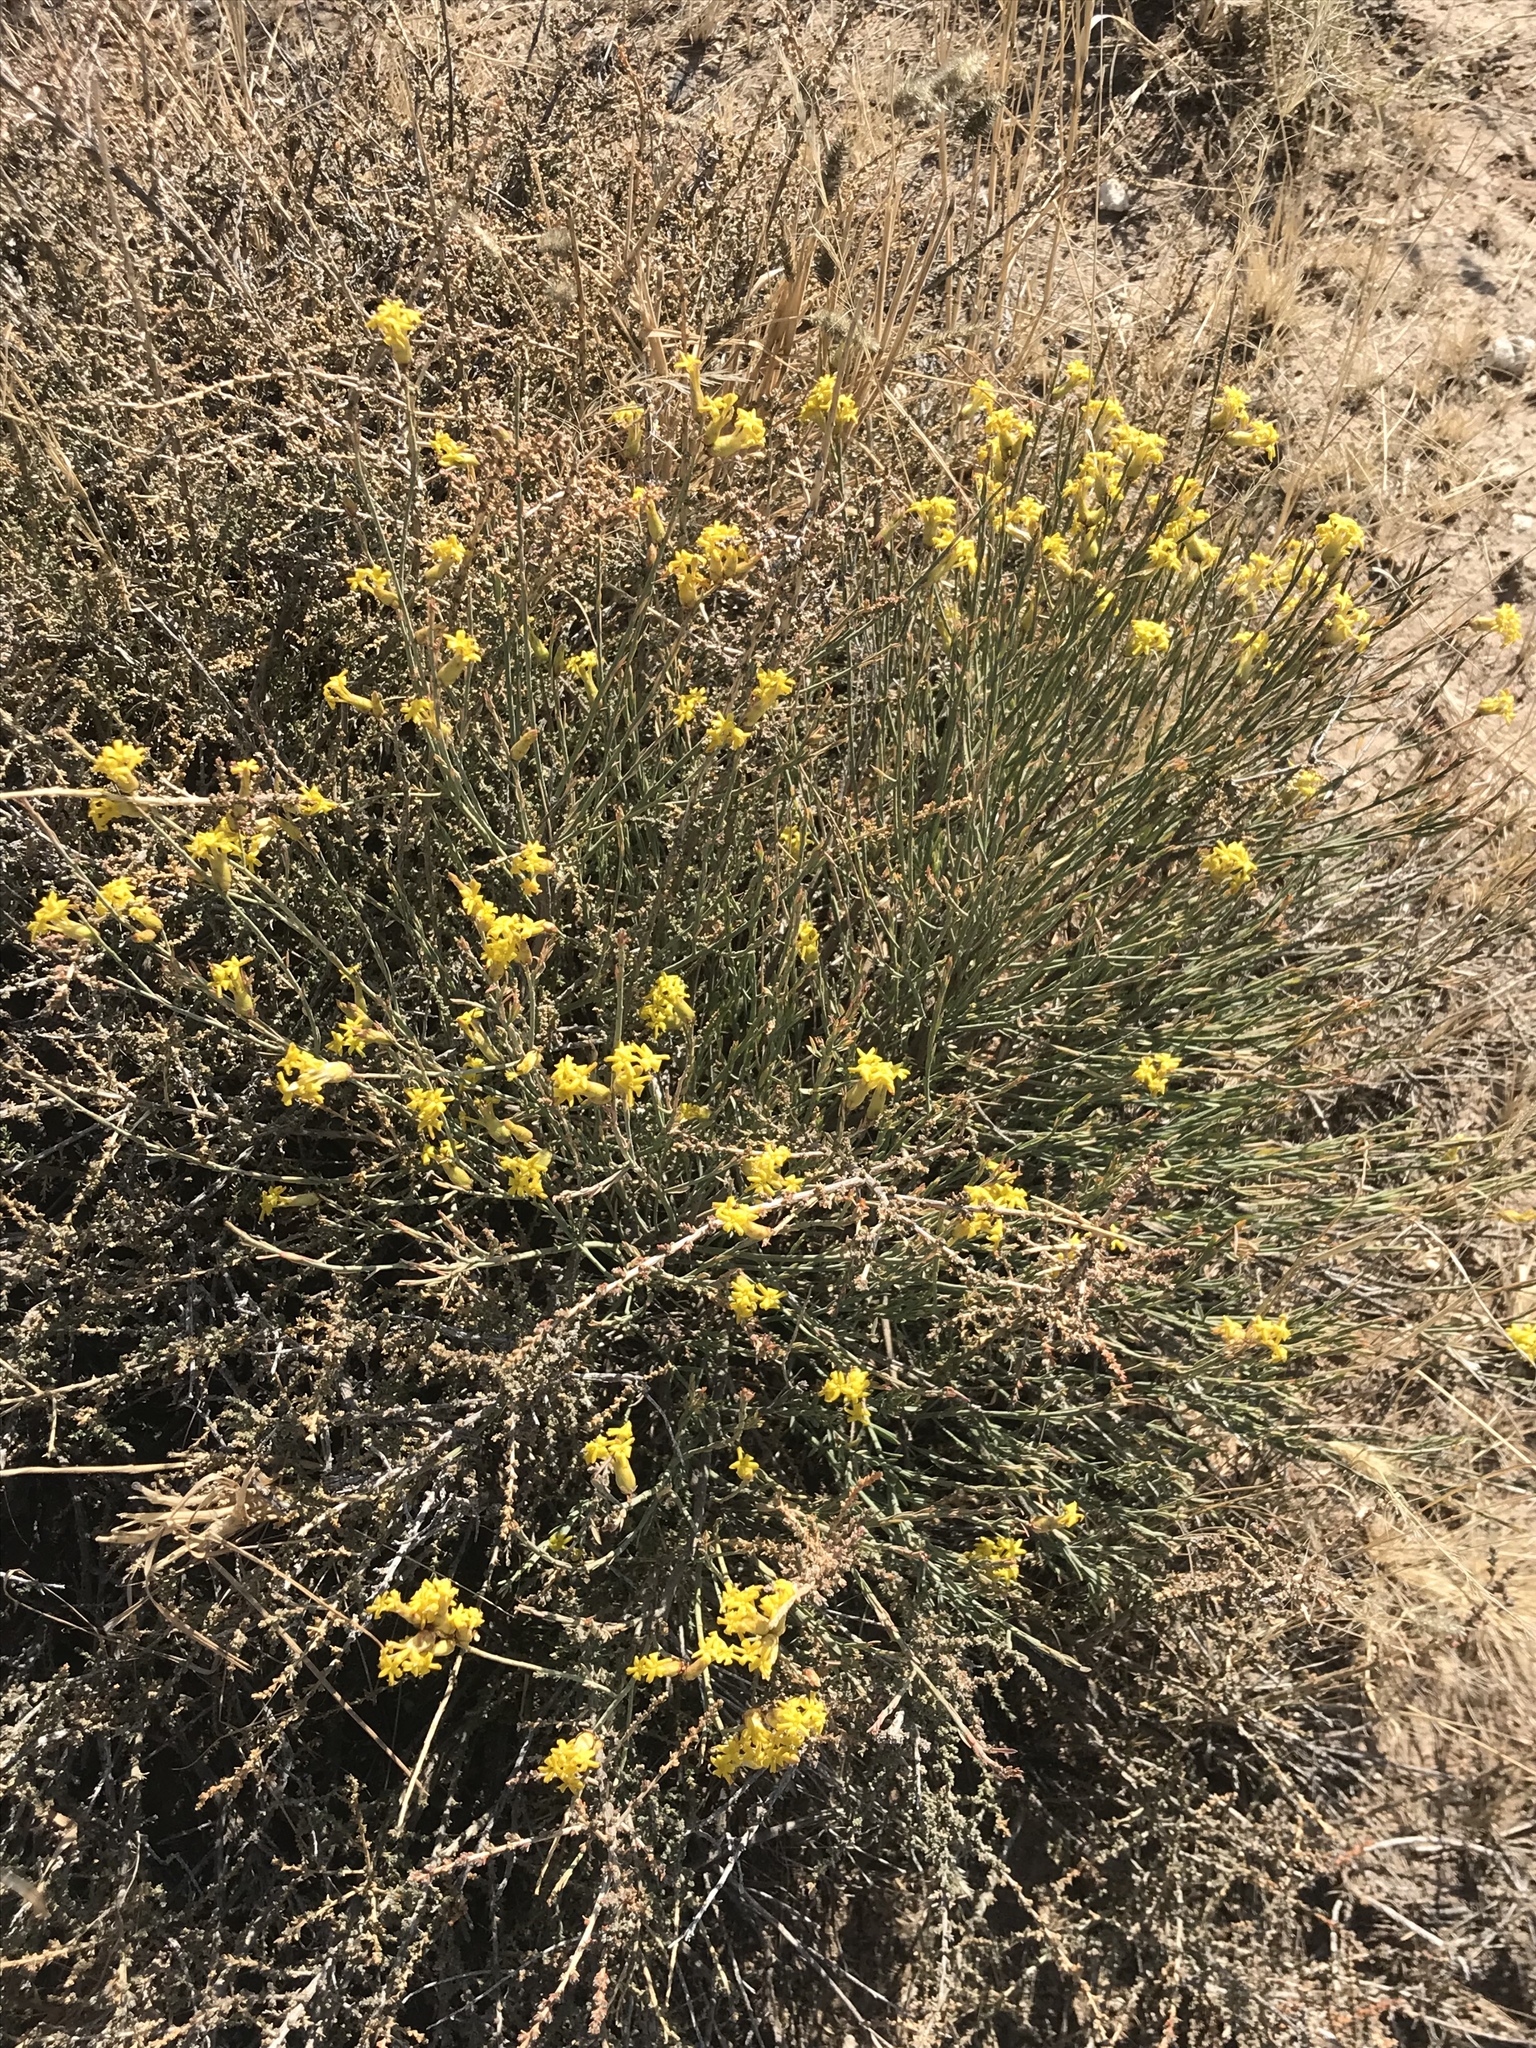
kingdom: Plantae
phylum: Tracheophyta
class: Magnoliopsida
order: Malvales
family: Thymelaeaceae
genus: Gnidia
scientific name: Gnidia polycephala
